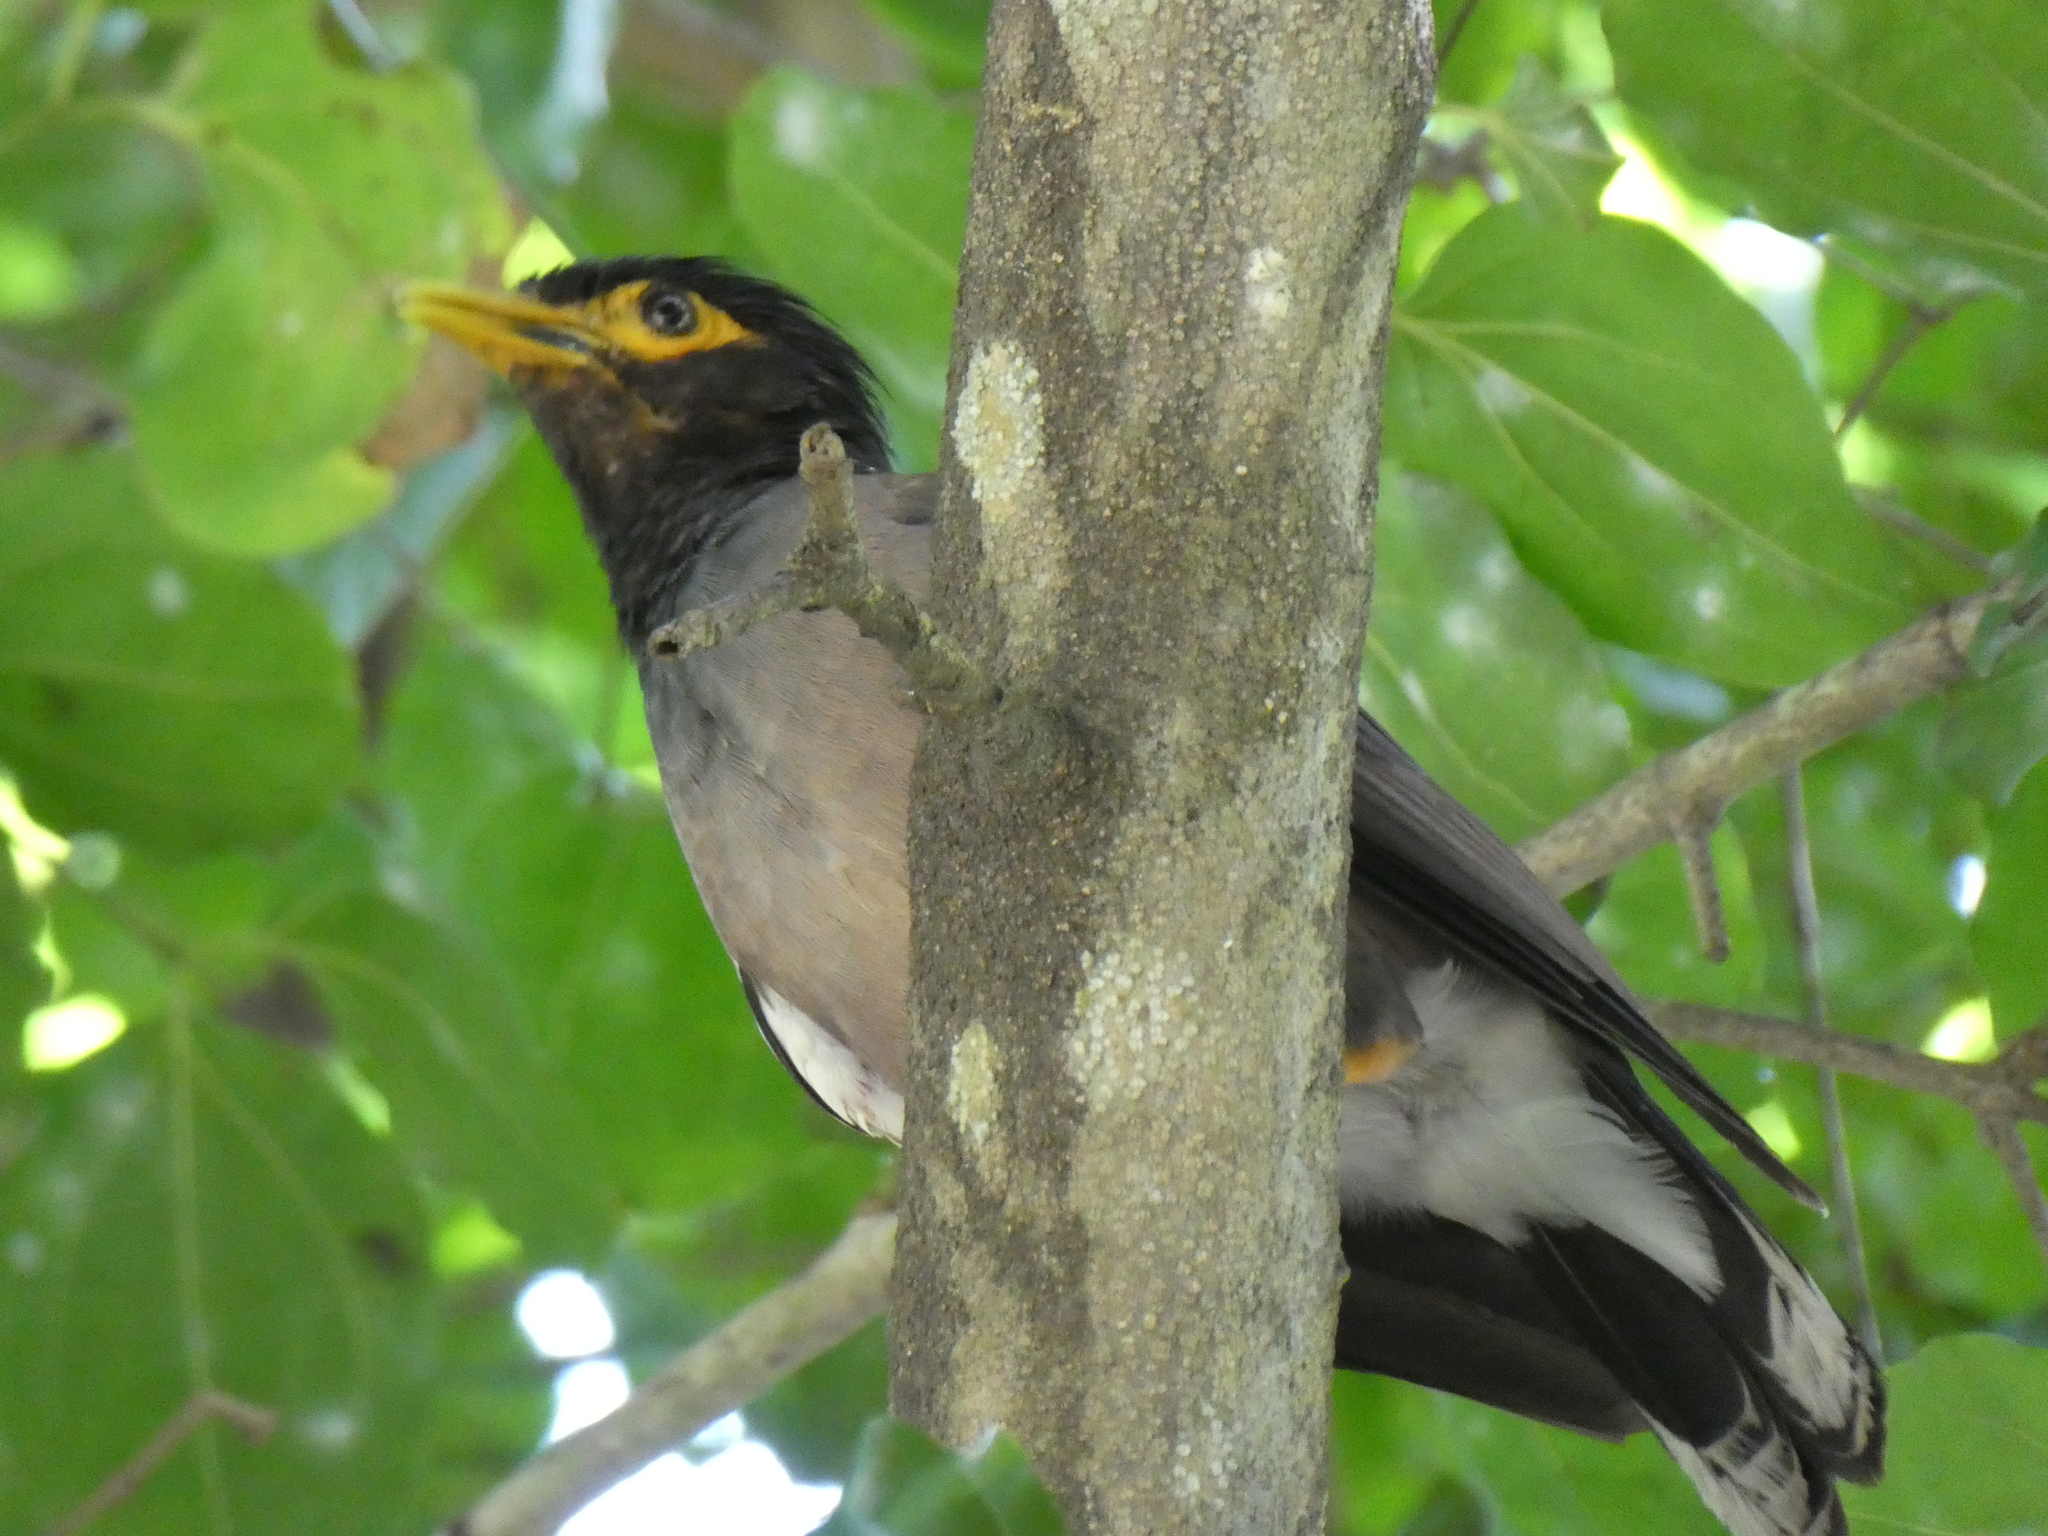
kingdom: Animalia
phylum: Chordata
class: Aves
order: Passeriformes
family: Sturnidae
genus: Acridotheres
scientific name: Acridotheres tristis
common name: Common myna
